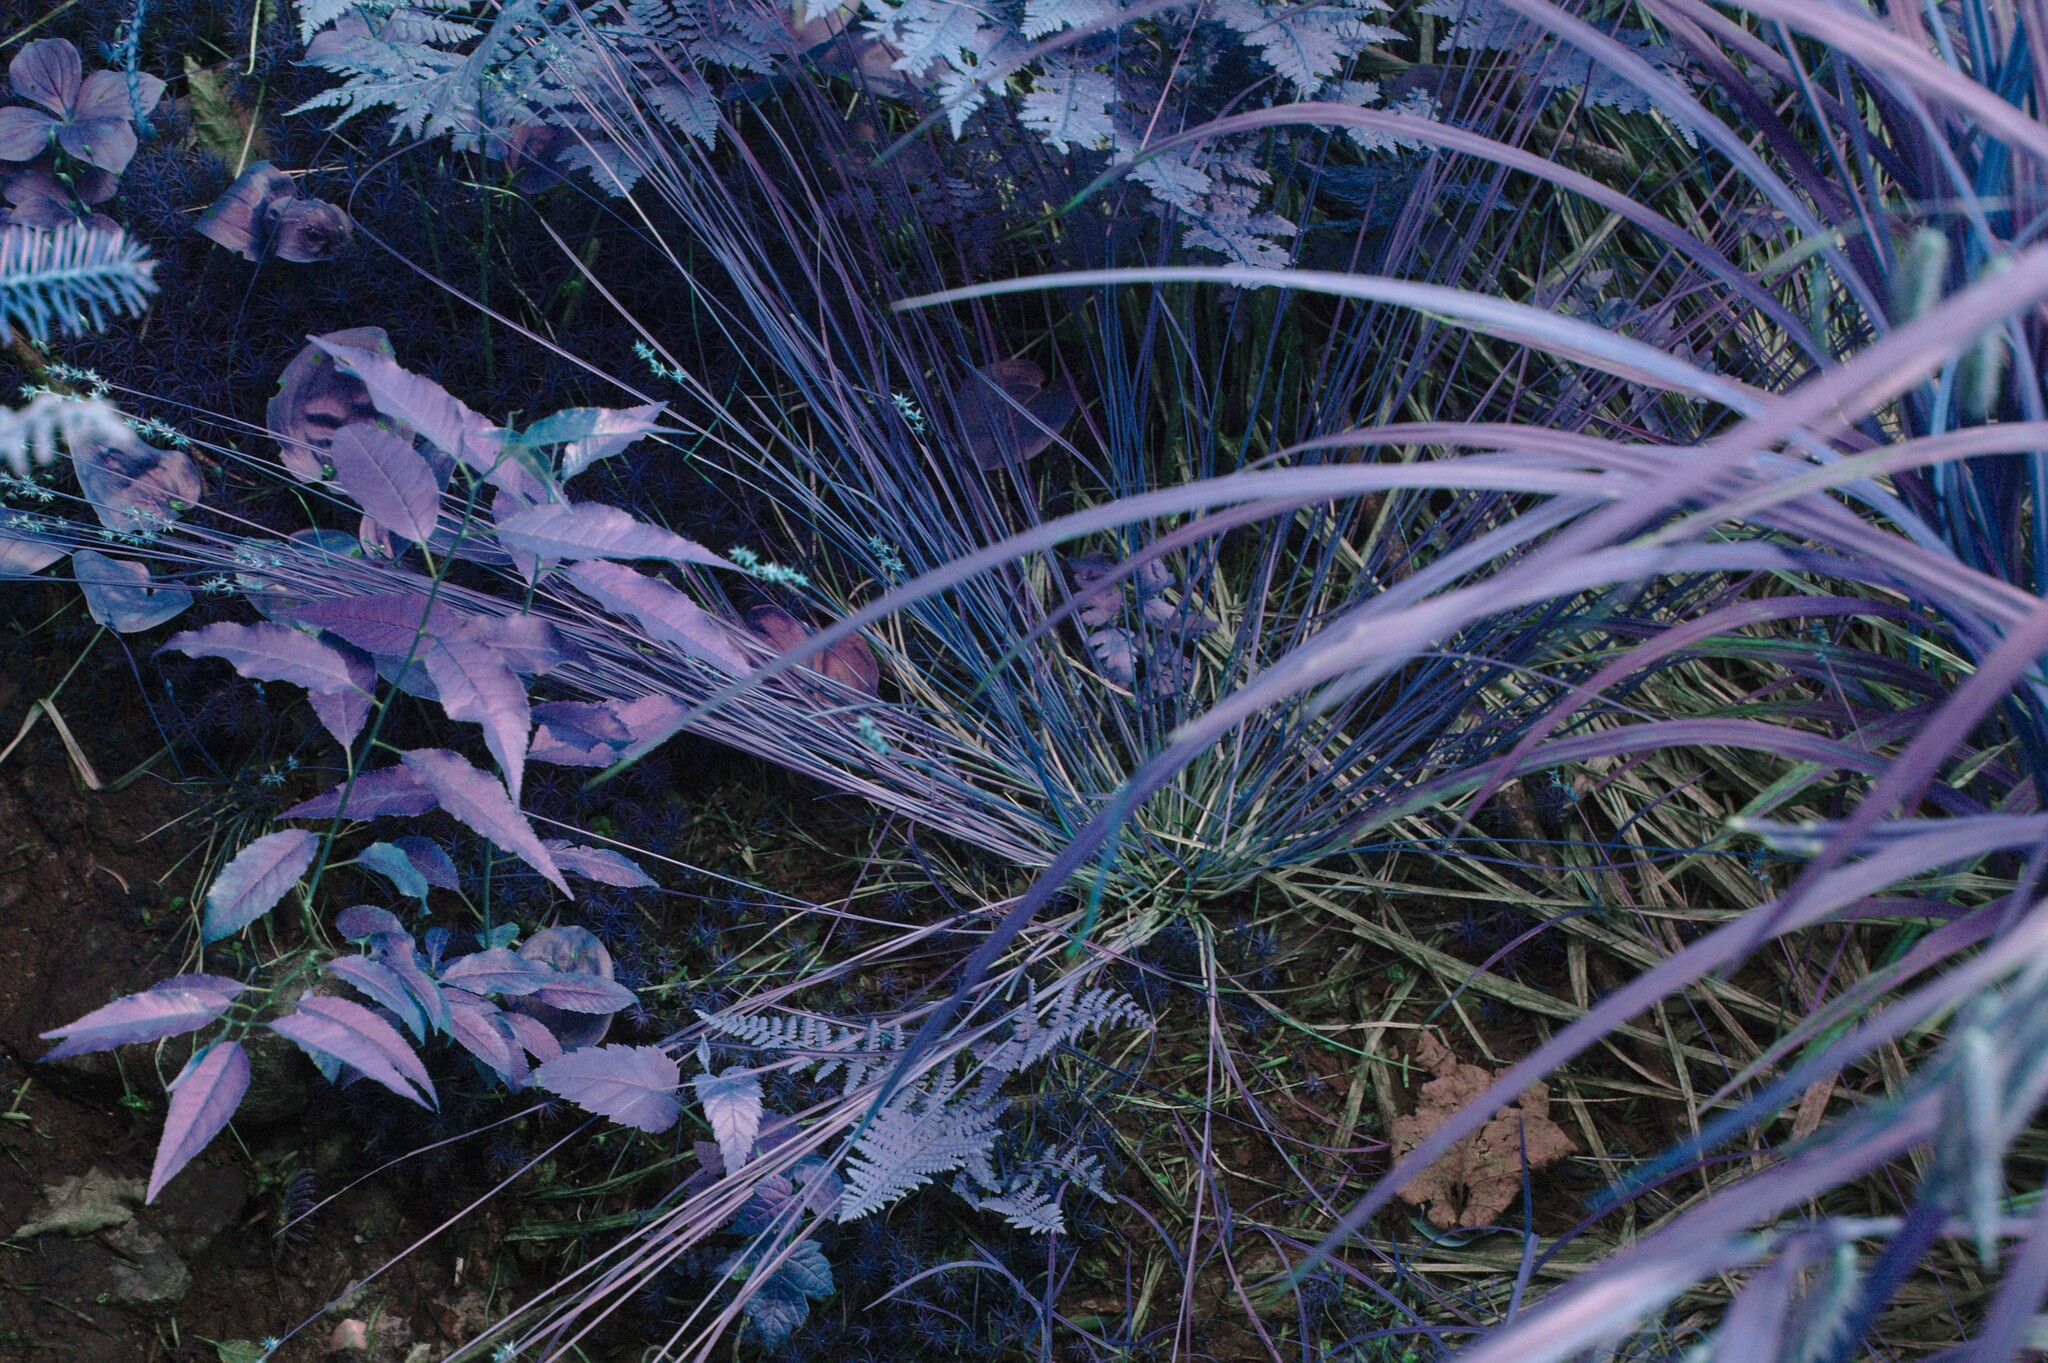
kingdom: Plantae
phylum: Tracheophyta
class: Liliopsida
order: Poales
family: Cyperaceae
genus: Carex
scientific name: Carex echinata
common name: Star sedge
